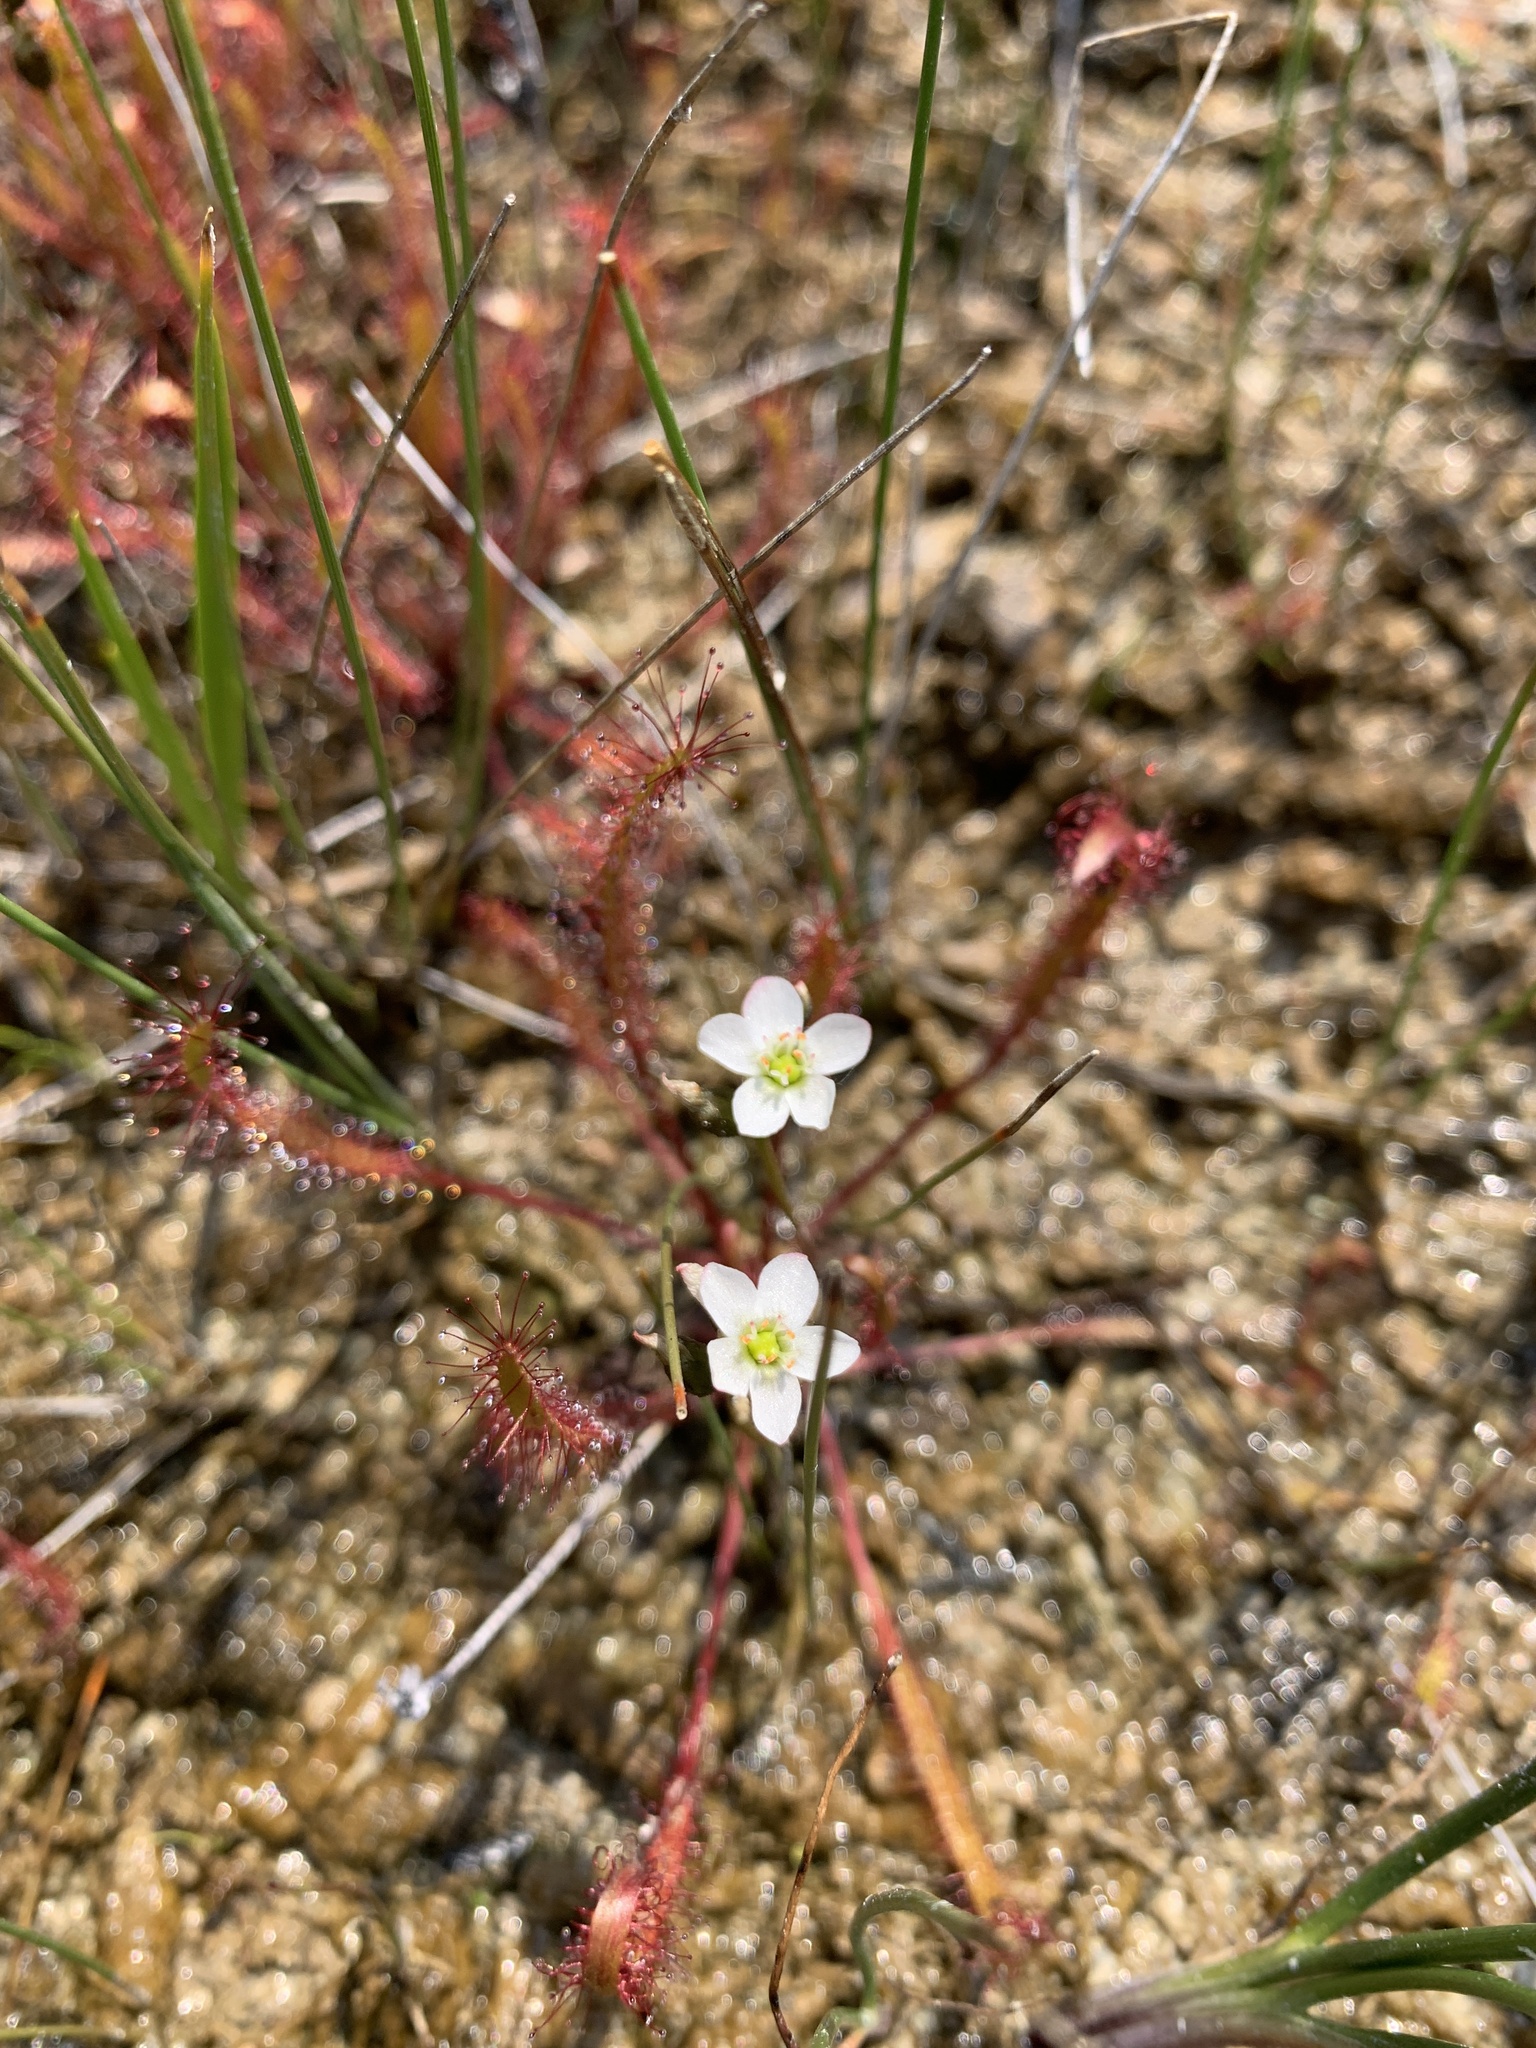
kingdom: Plantae
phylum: Tracheophyta
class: Magnoliopsida
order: Caryophyllales
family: Droseraceae
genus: Drosera
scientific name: Drosera linearis
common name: Linear-leaved sundew
